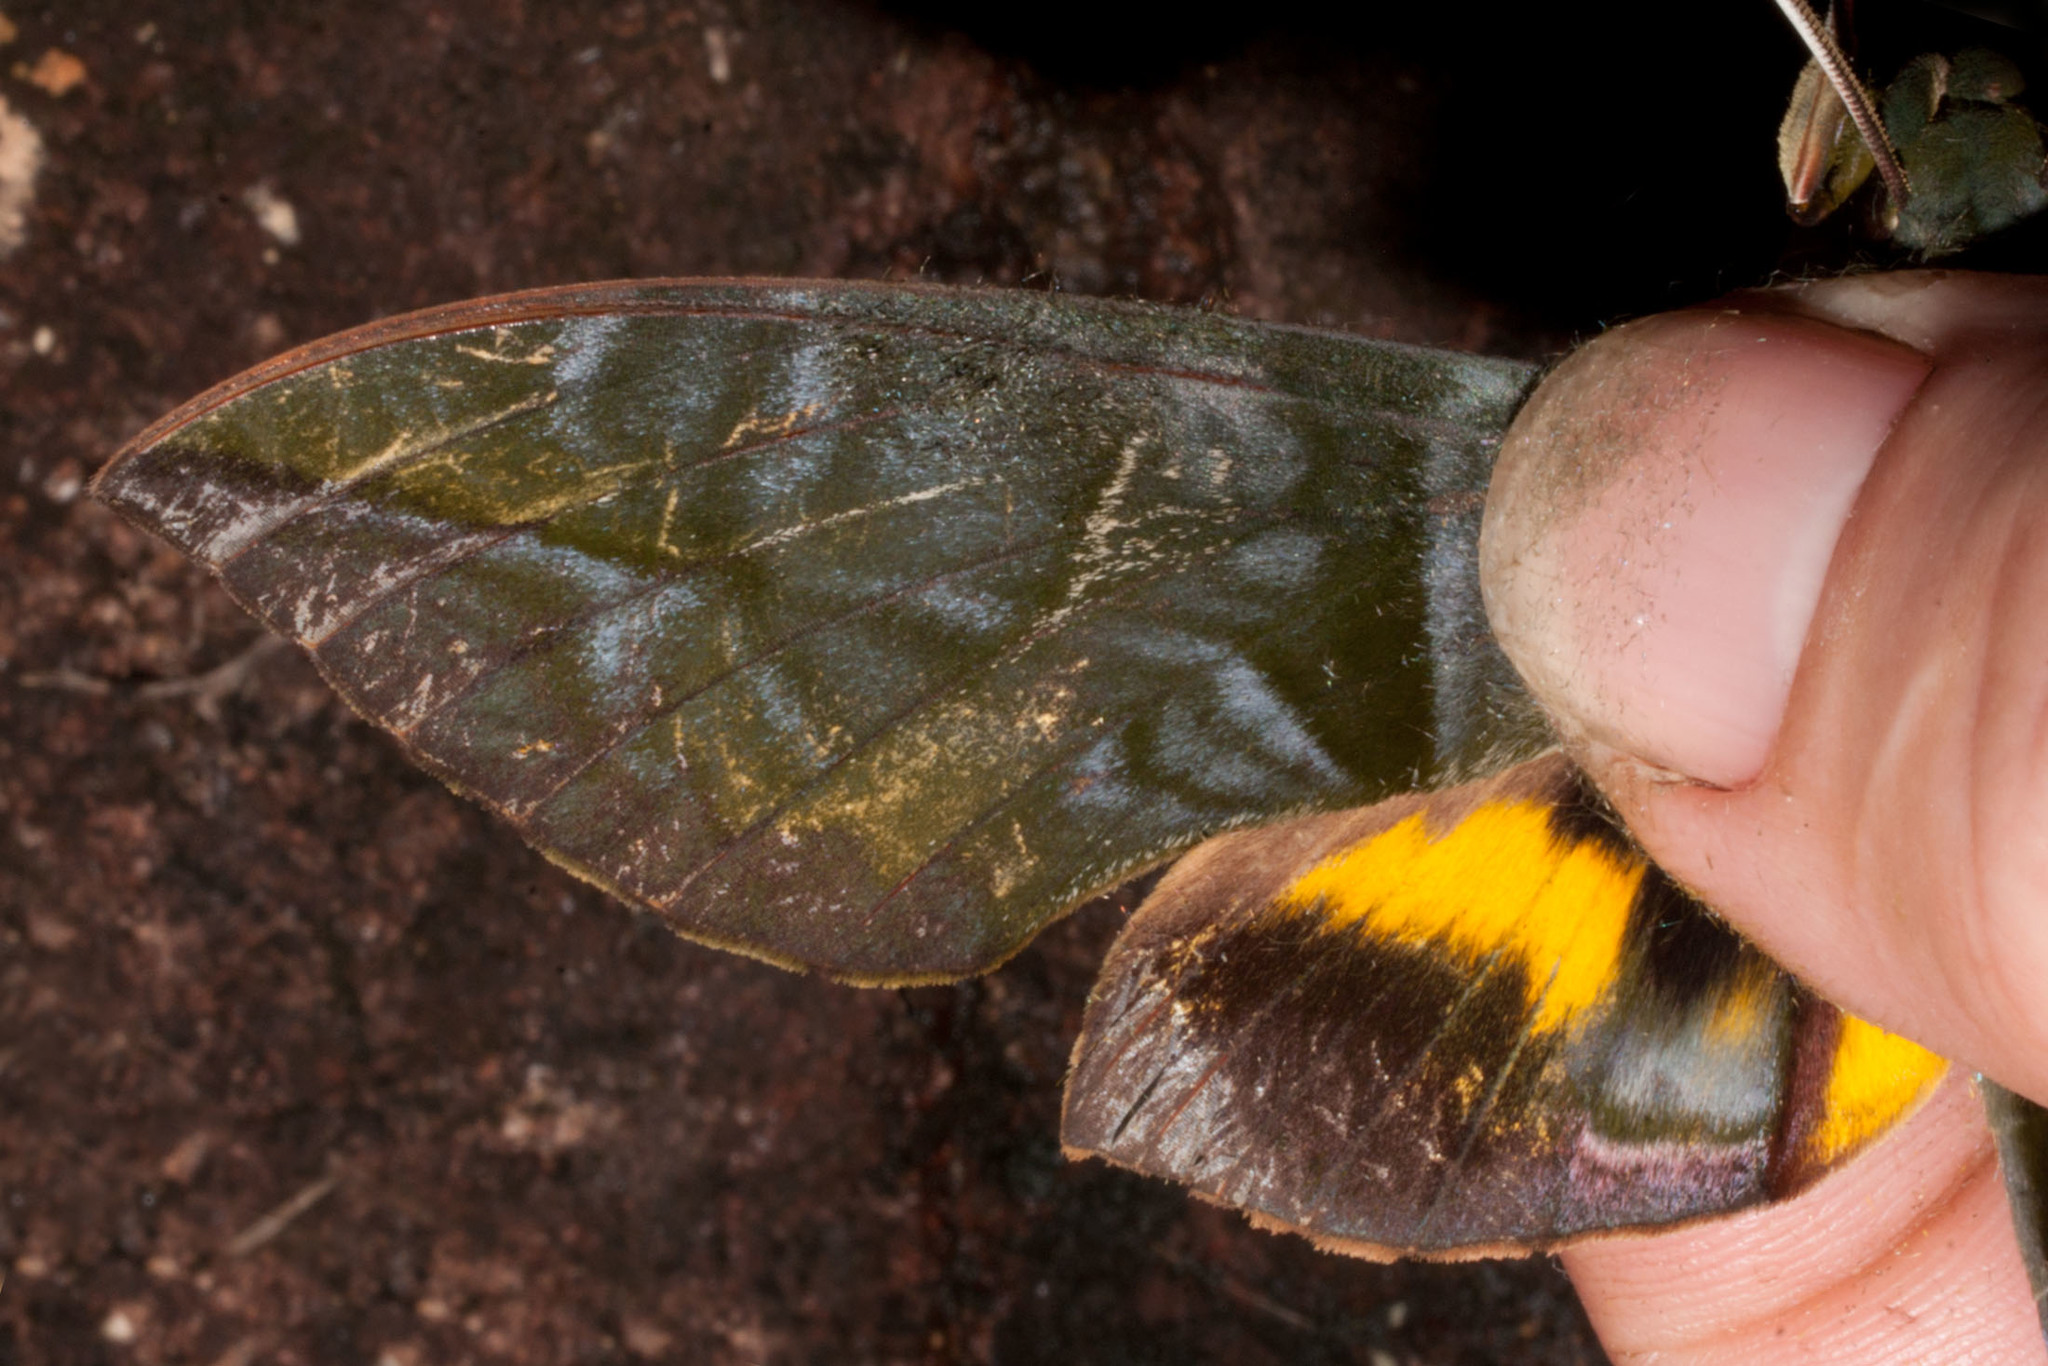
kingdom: Animalia
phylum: Arthropoda
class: Insecta
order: Lepidoptera
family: Sphingidae
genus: Eumorpha
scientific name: Eumorpha phorbas
